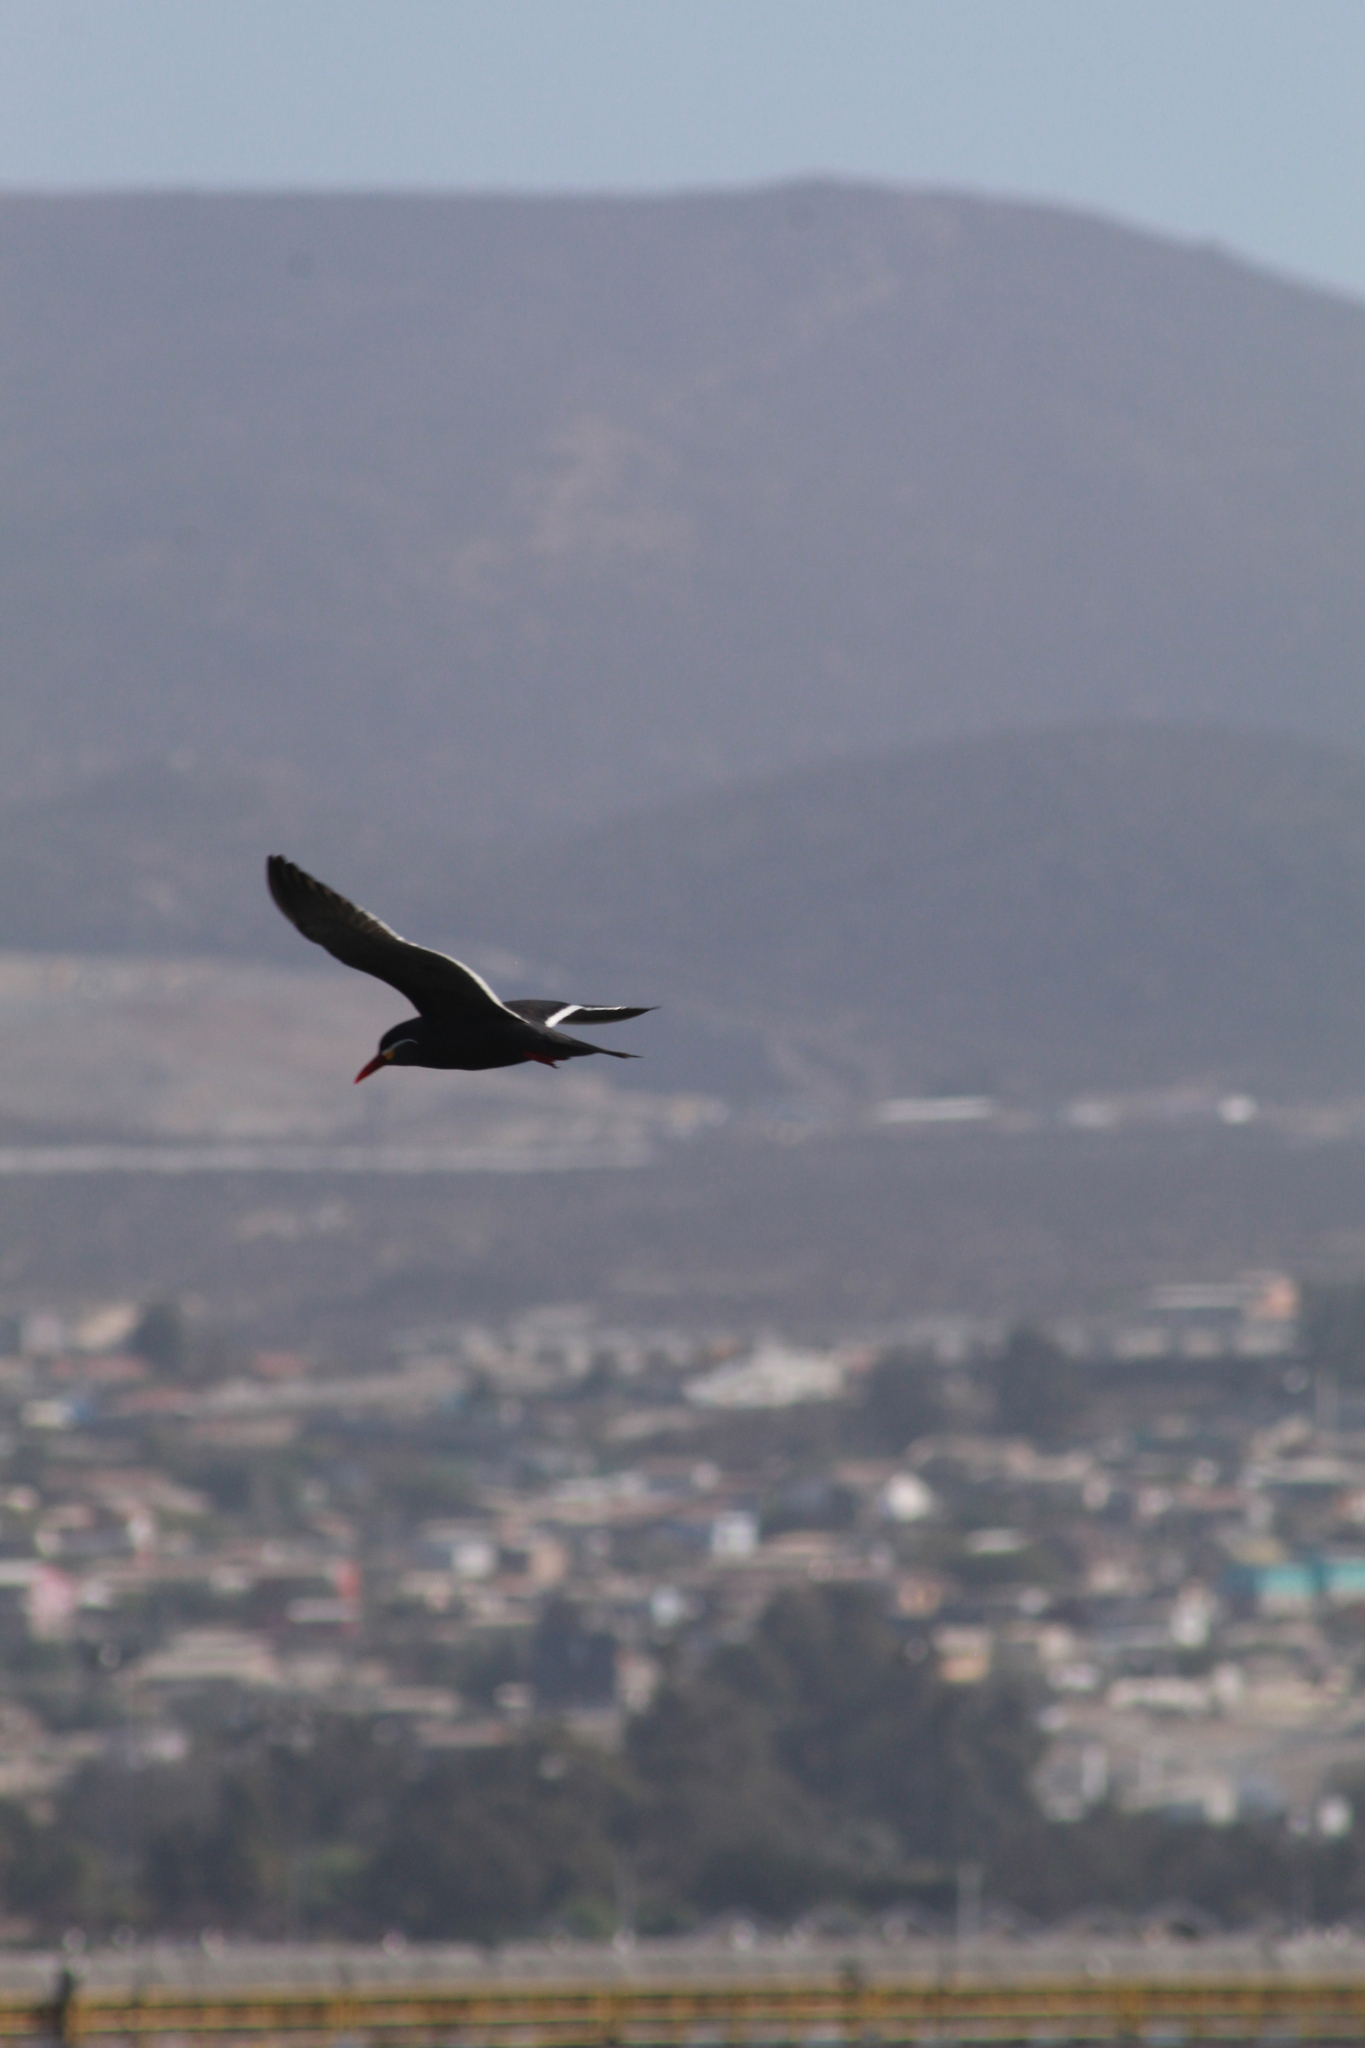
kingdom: Animalia
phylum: Chordata
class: Aves
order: Charadriiformes
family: Laridae
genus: Larosterna
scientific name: Larosterna inca
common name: Inca tern
